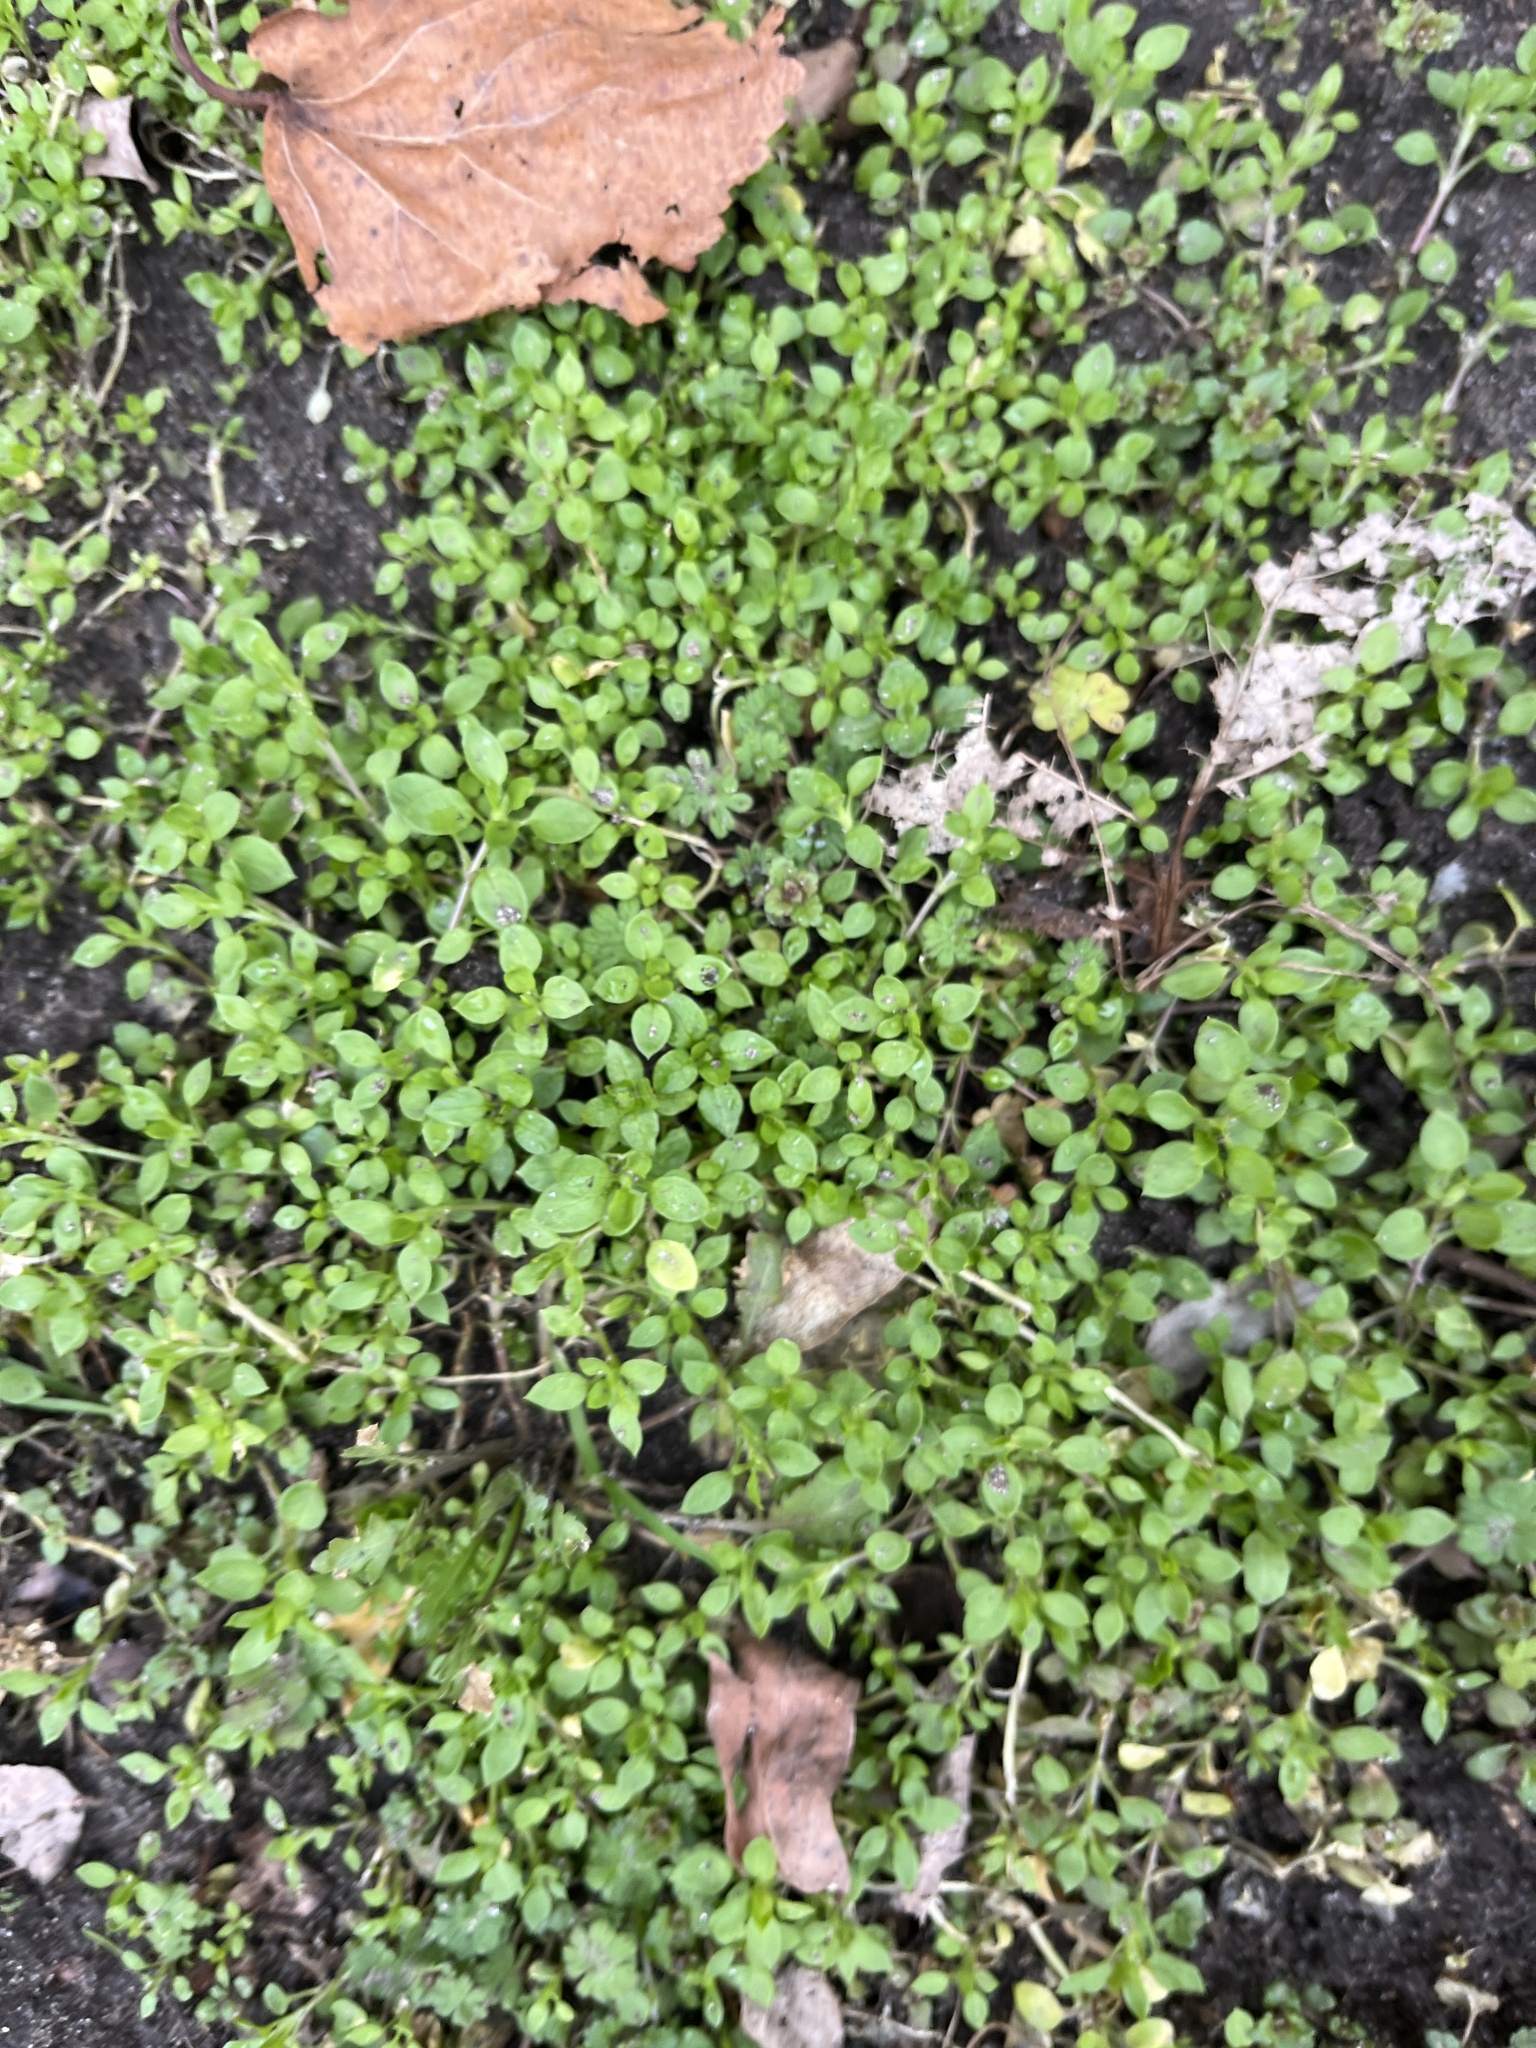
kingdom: Plantae
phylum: Tracheophyta
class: Magnoliopsida
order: Caryophyllales
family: Caryophyllaceae
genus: Stellaria
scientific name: Stellaria media
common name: Common chickweed
